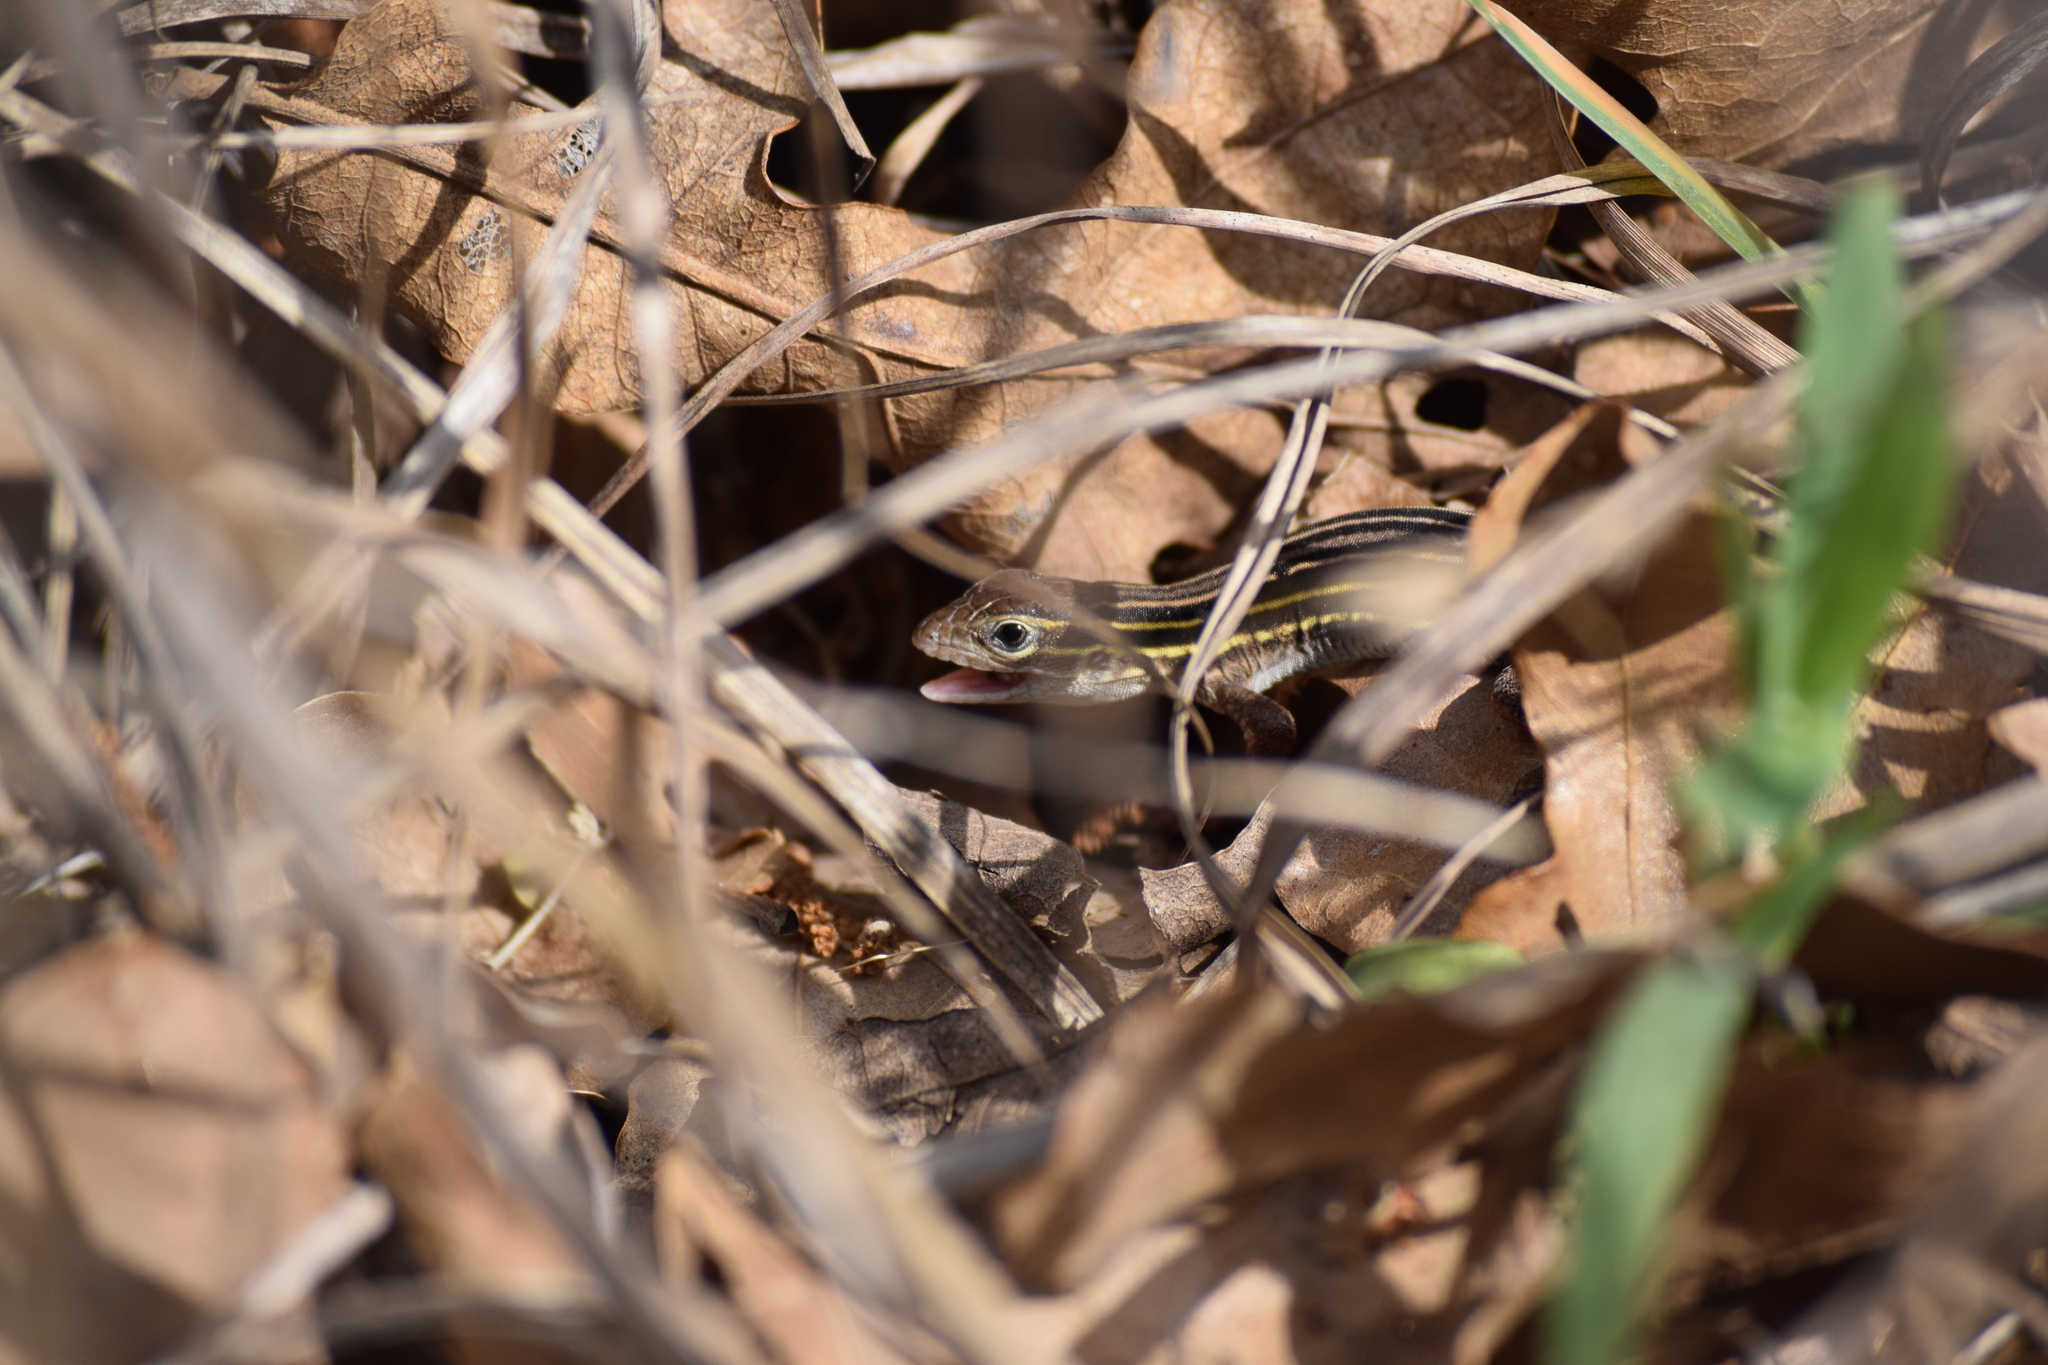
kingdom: Animalia
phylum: Chordata
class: Squamata
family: Teiidae
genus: Aspidoscelis
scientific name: Aspidoscelis gularis
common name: Eastern spotted whiptail
